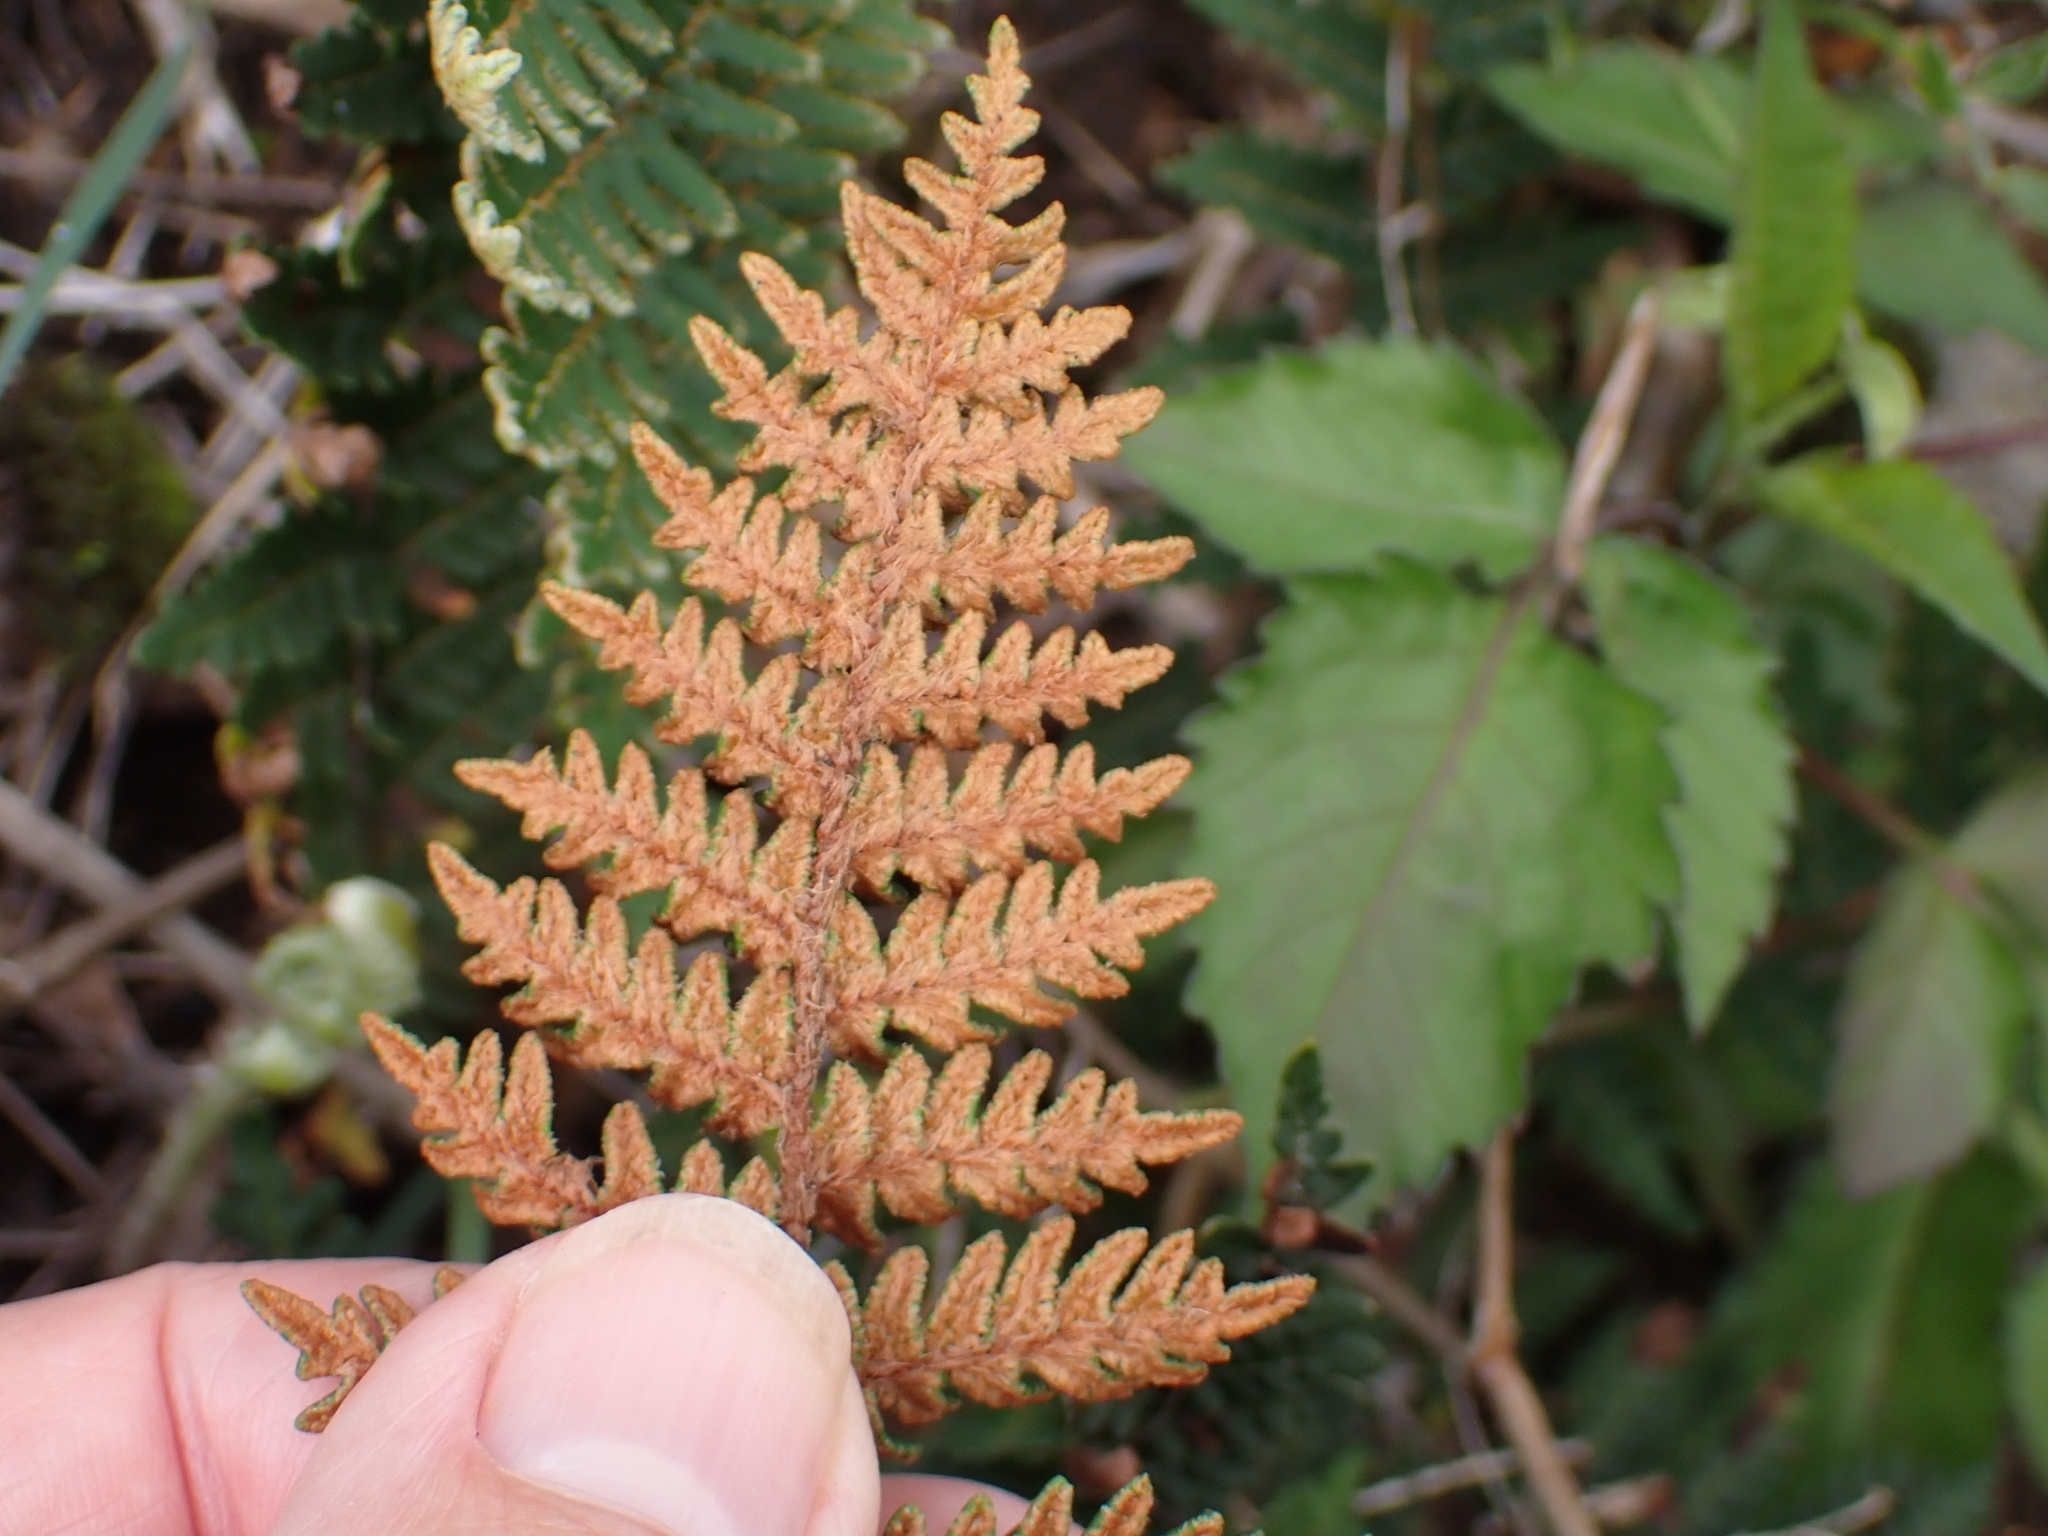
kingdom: Plantae
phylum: Tracheophyta
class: Polypodiopsida
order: Polypodiales
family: Pteridaceae
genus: Paragymnopteris
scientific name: Paragymnopteris marantae
